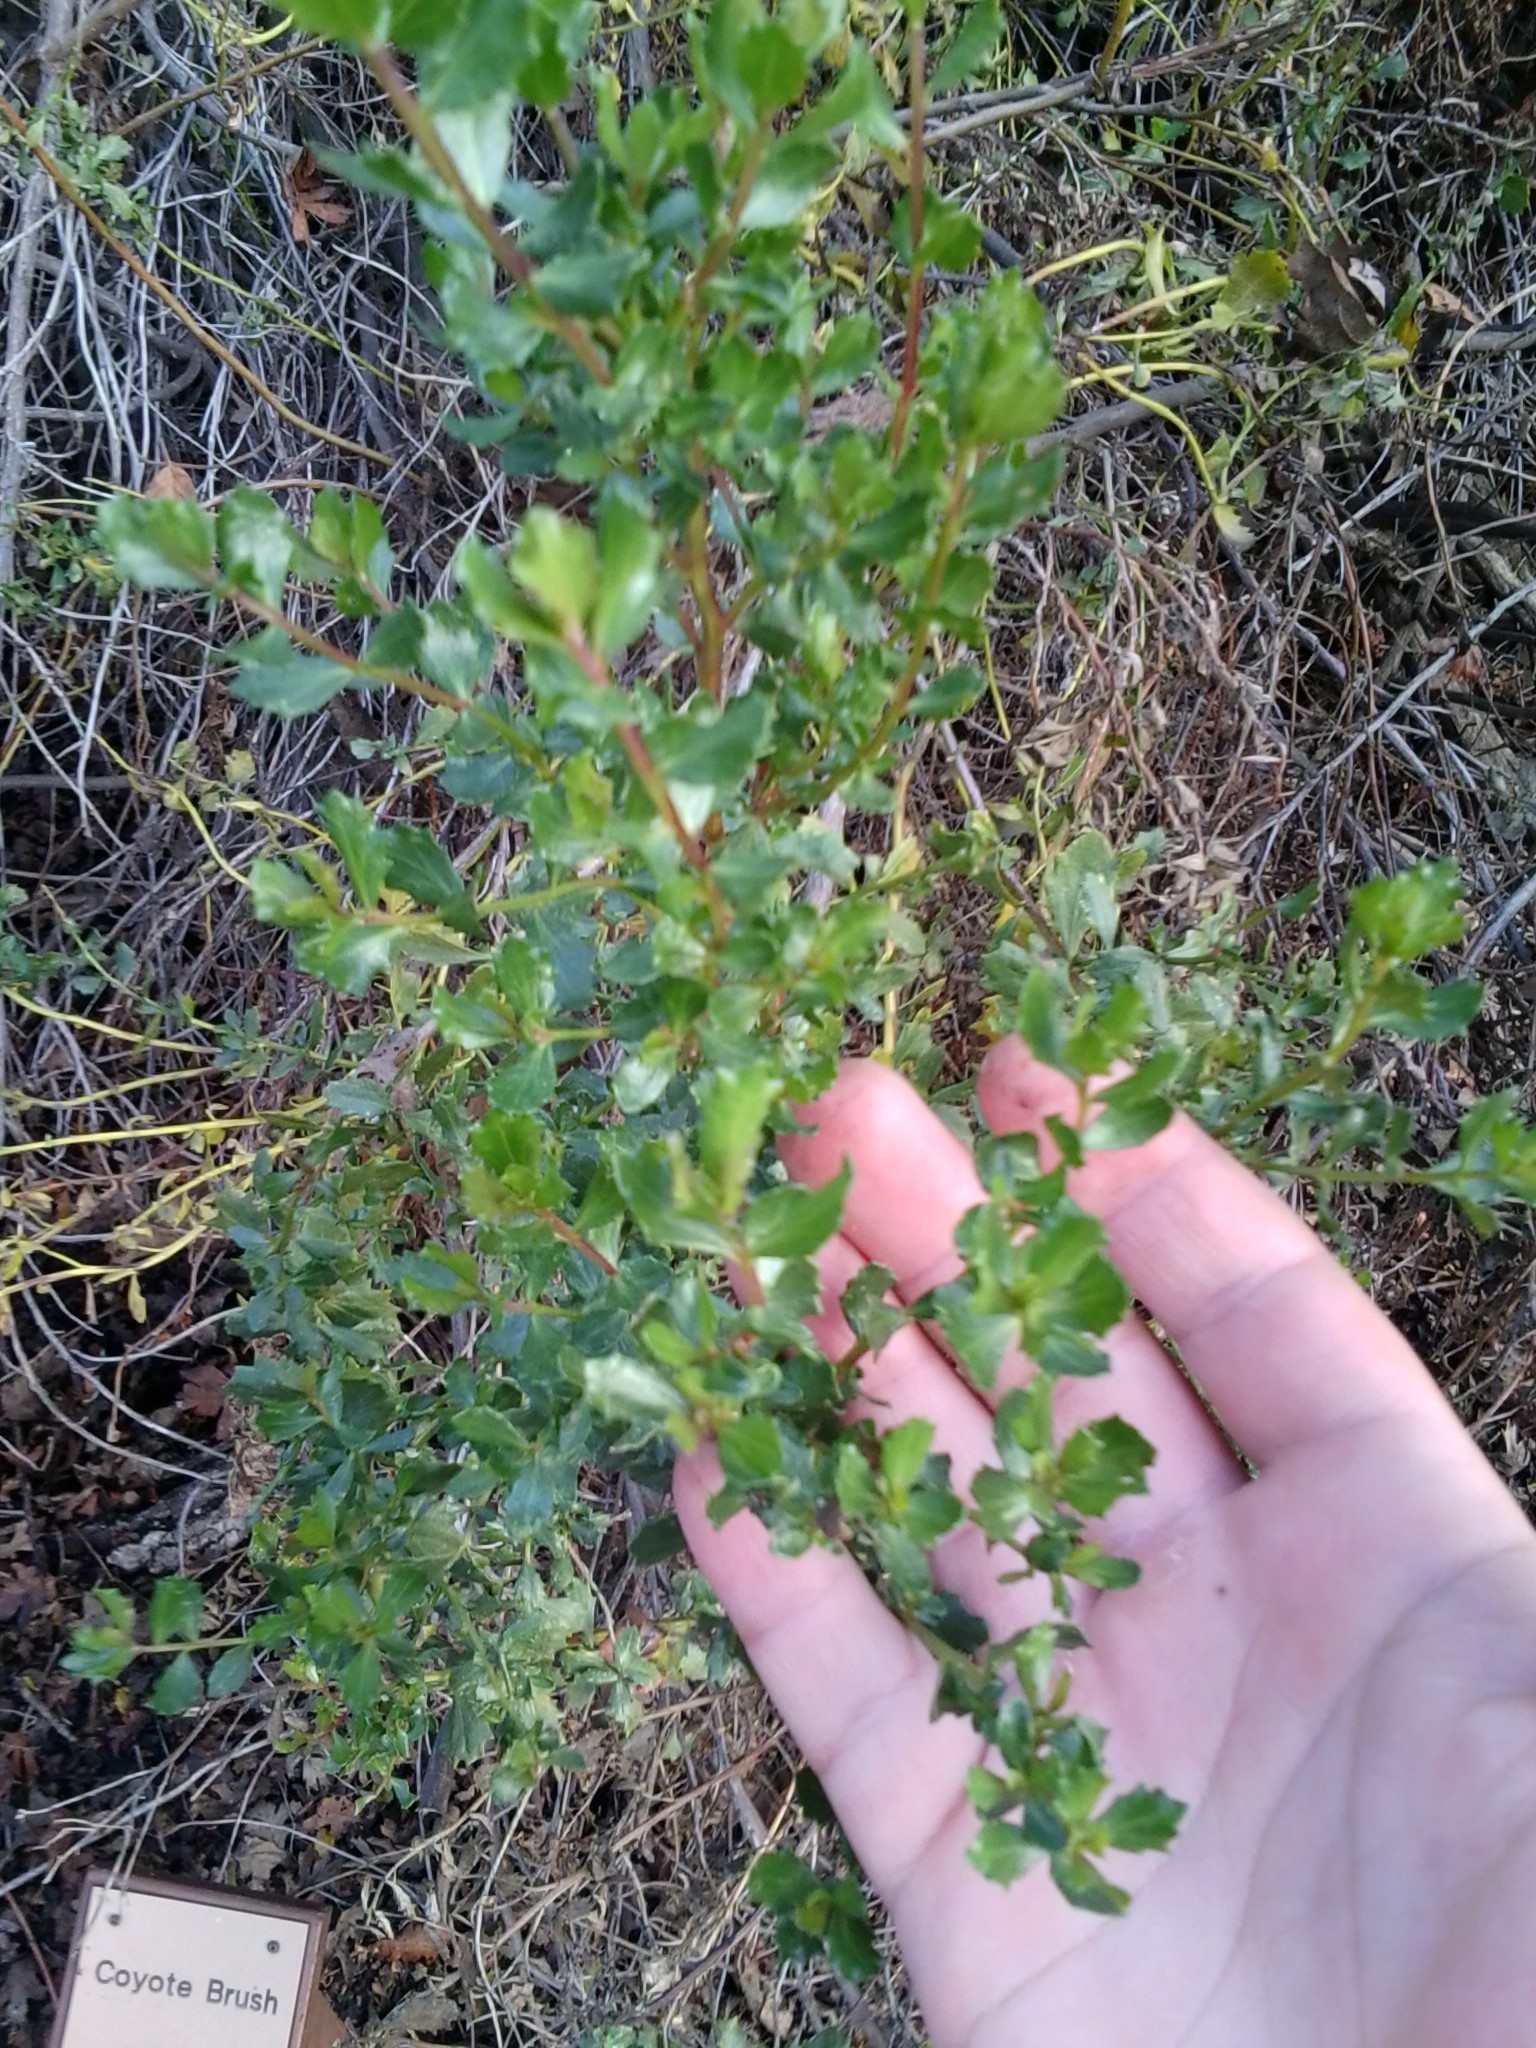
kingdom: Plantae
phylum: Tracheophyta
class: Magnoliopsida
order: Asterales
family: Asteraceae
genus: Baccharis
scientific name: Baccharis pilularis
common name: Coyotebrush
